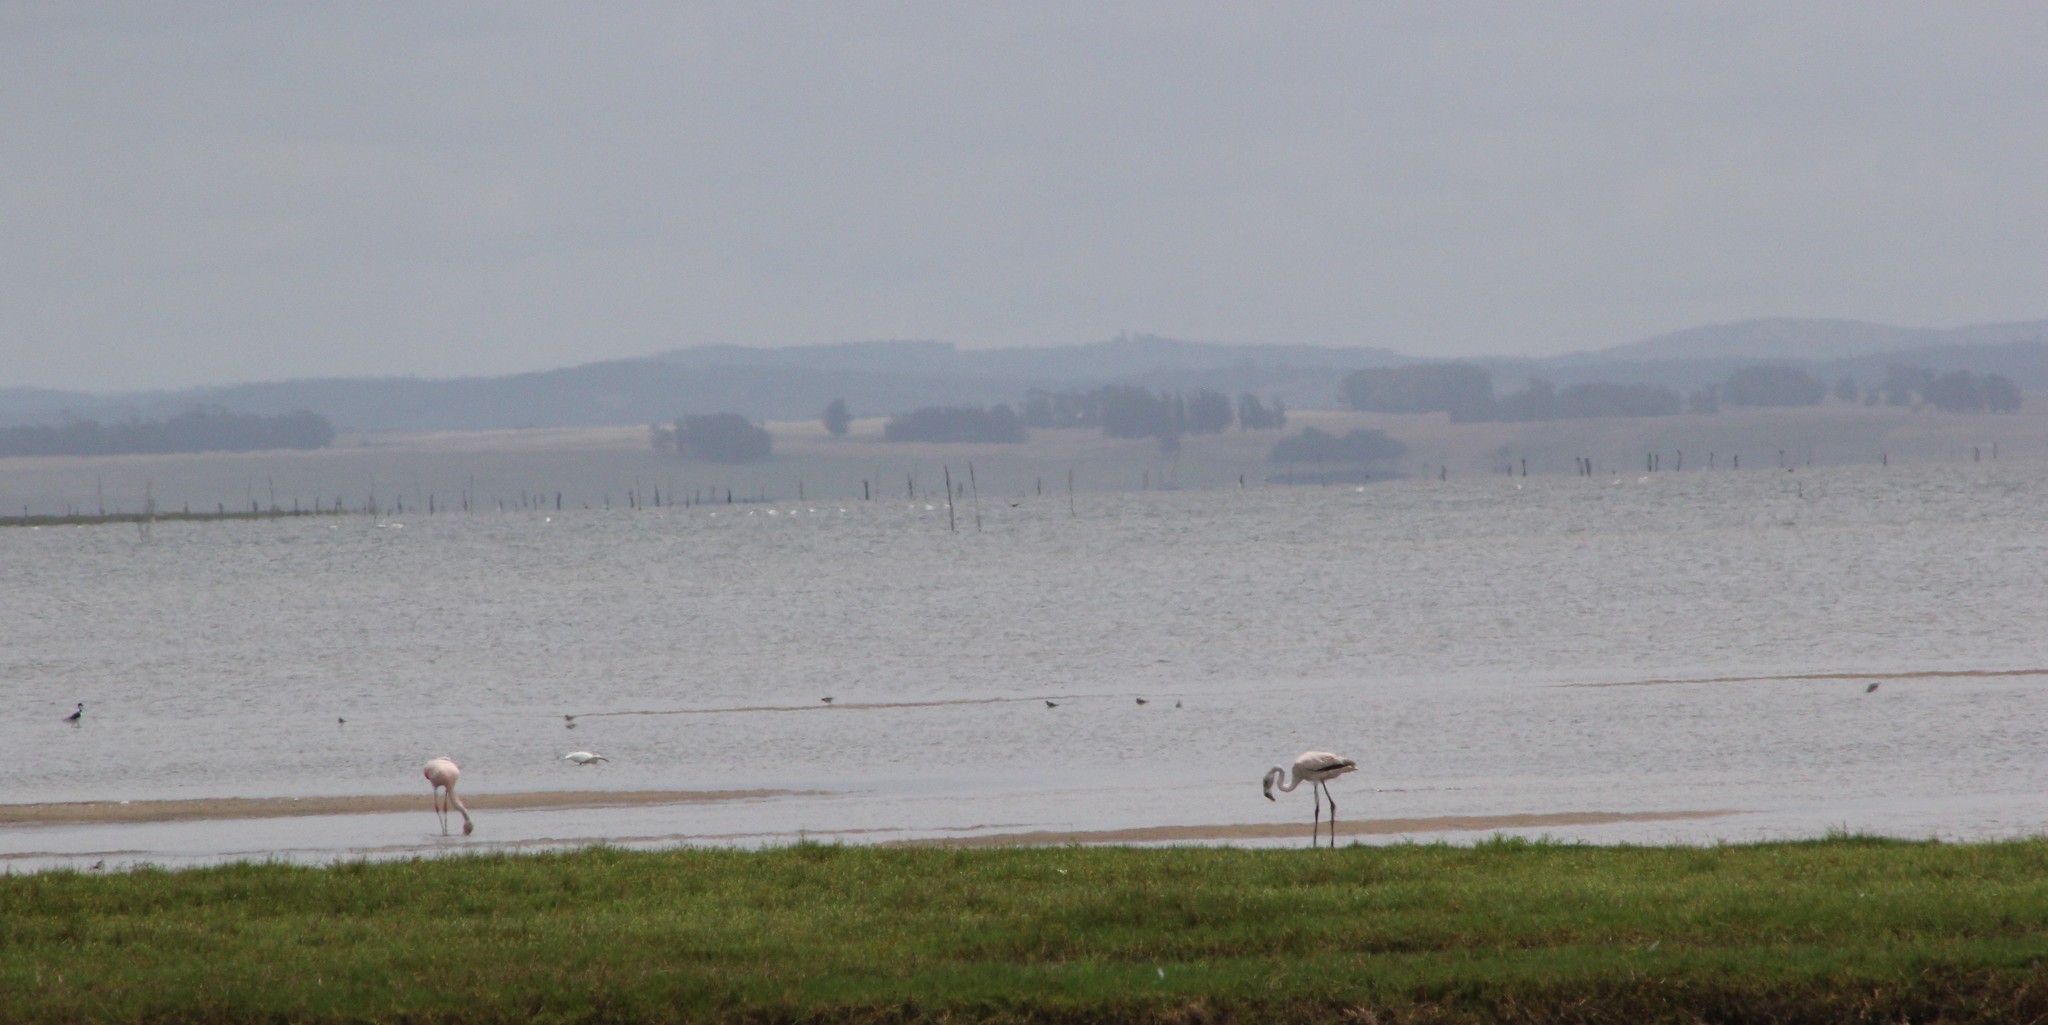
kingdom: Animalia
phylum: Chordata
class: Aves
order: Phoenicopteriformes
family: Phoenicopteridae
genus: Phoenicopterus
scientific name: Phoenicopterus chilensis
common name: Chilean flamingo
